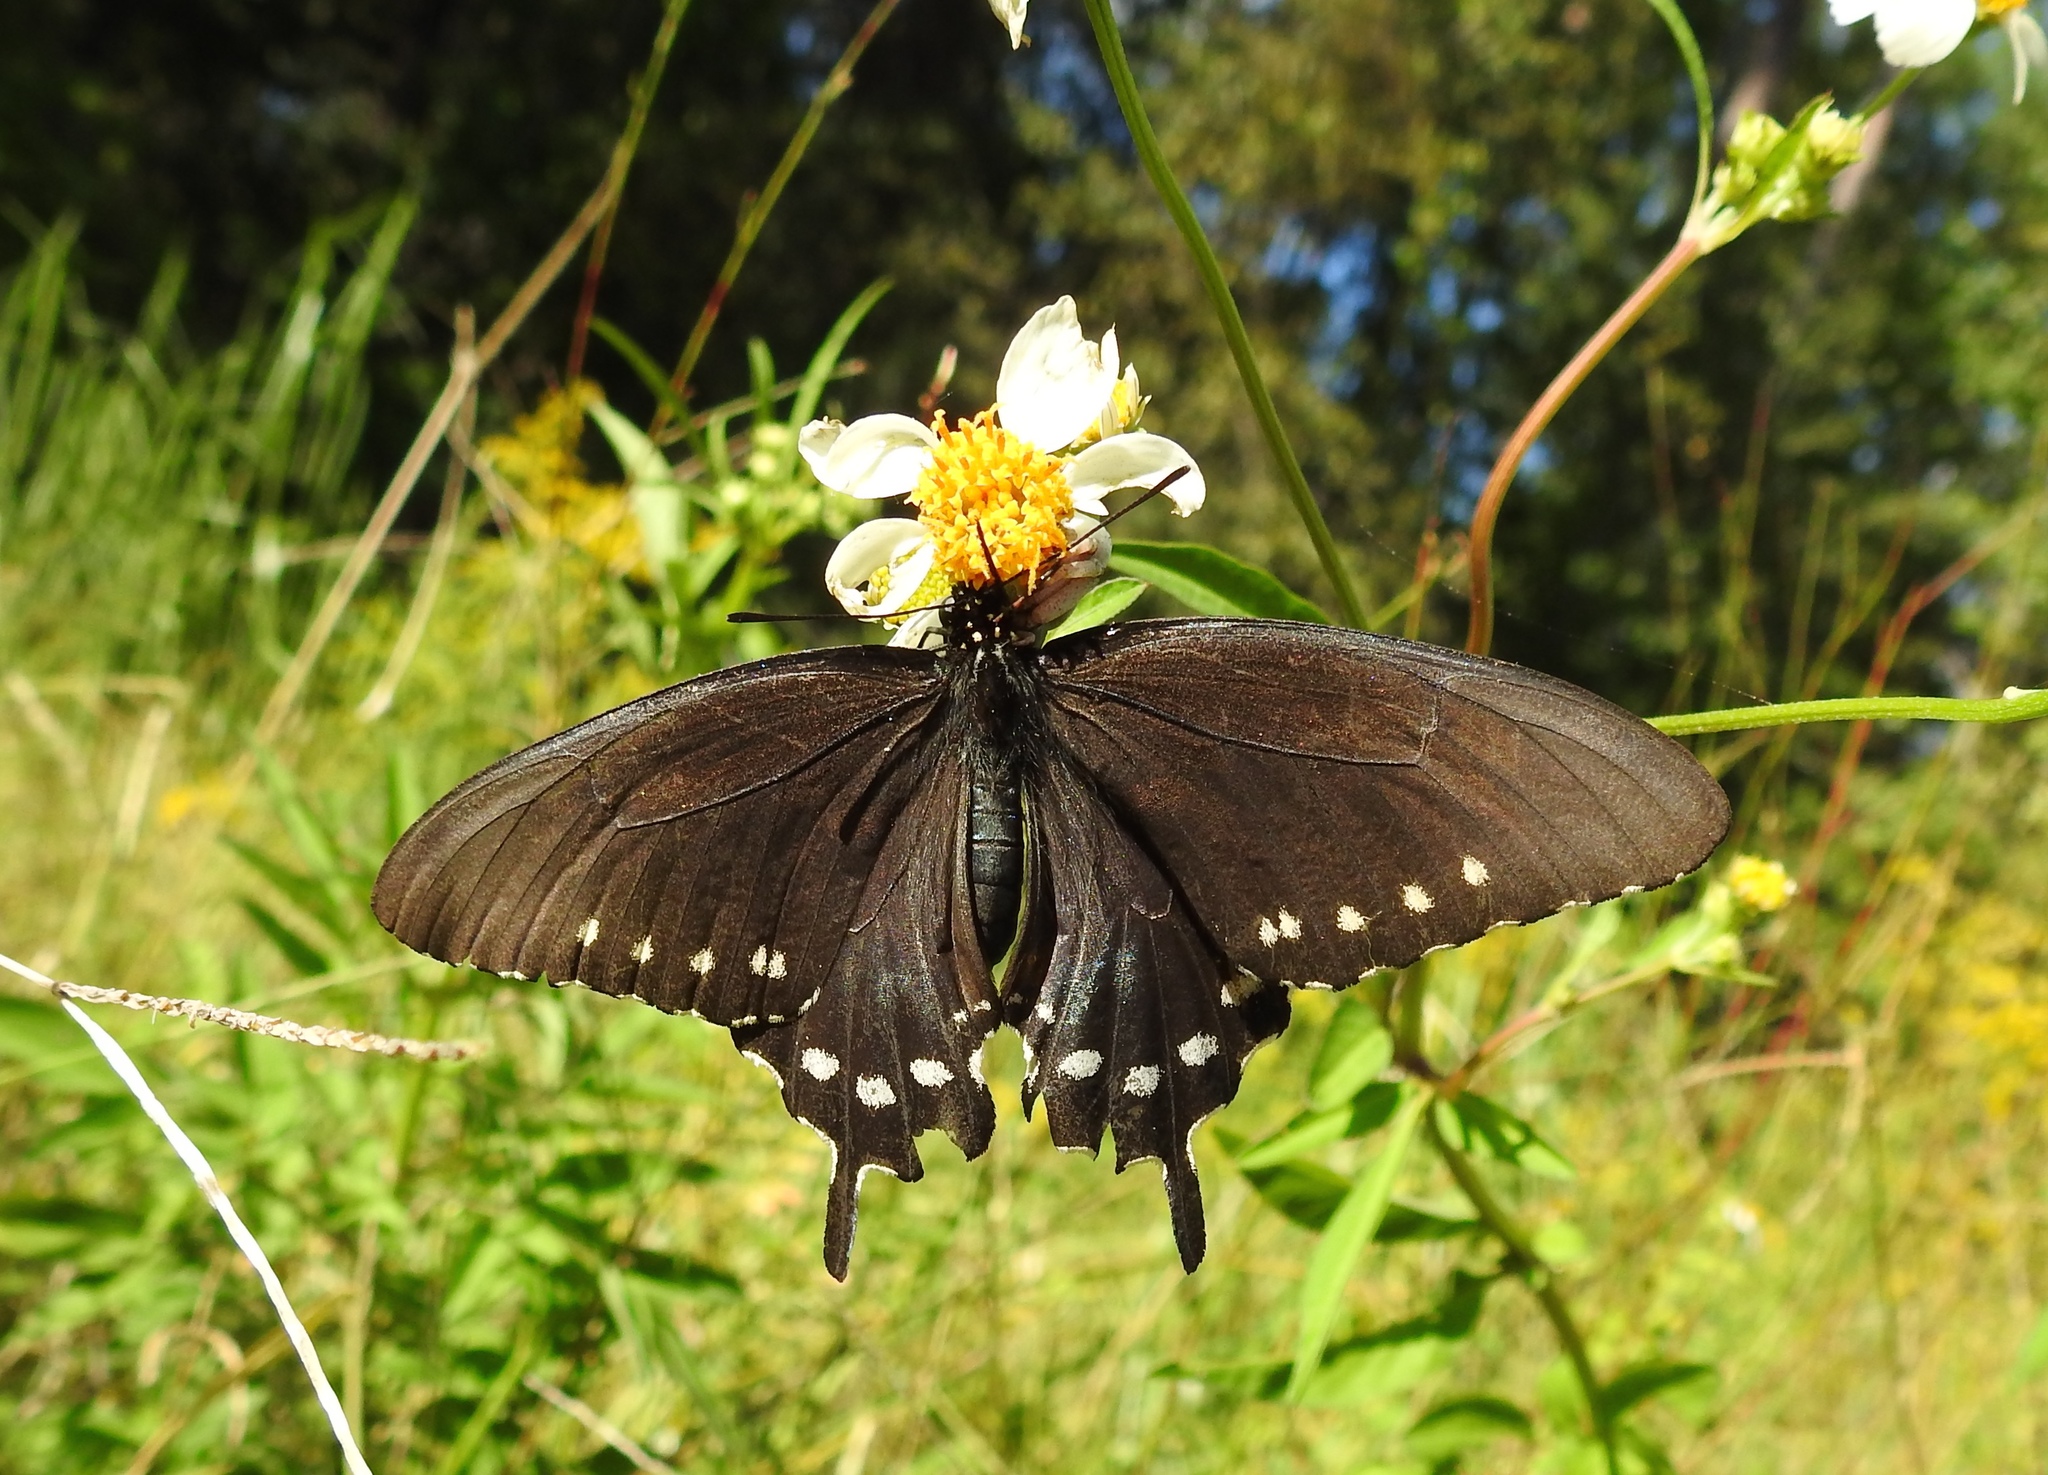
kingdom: Animalia
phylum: Arthropoda
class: Insecta
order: Lepidoptera
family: Papilionidae
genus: Battus
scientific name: Battus philenor
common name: Pipevine swallowtail
